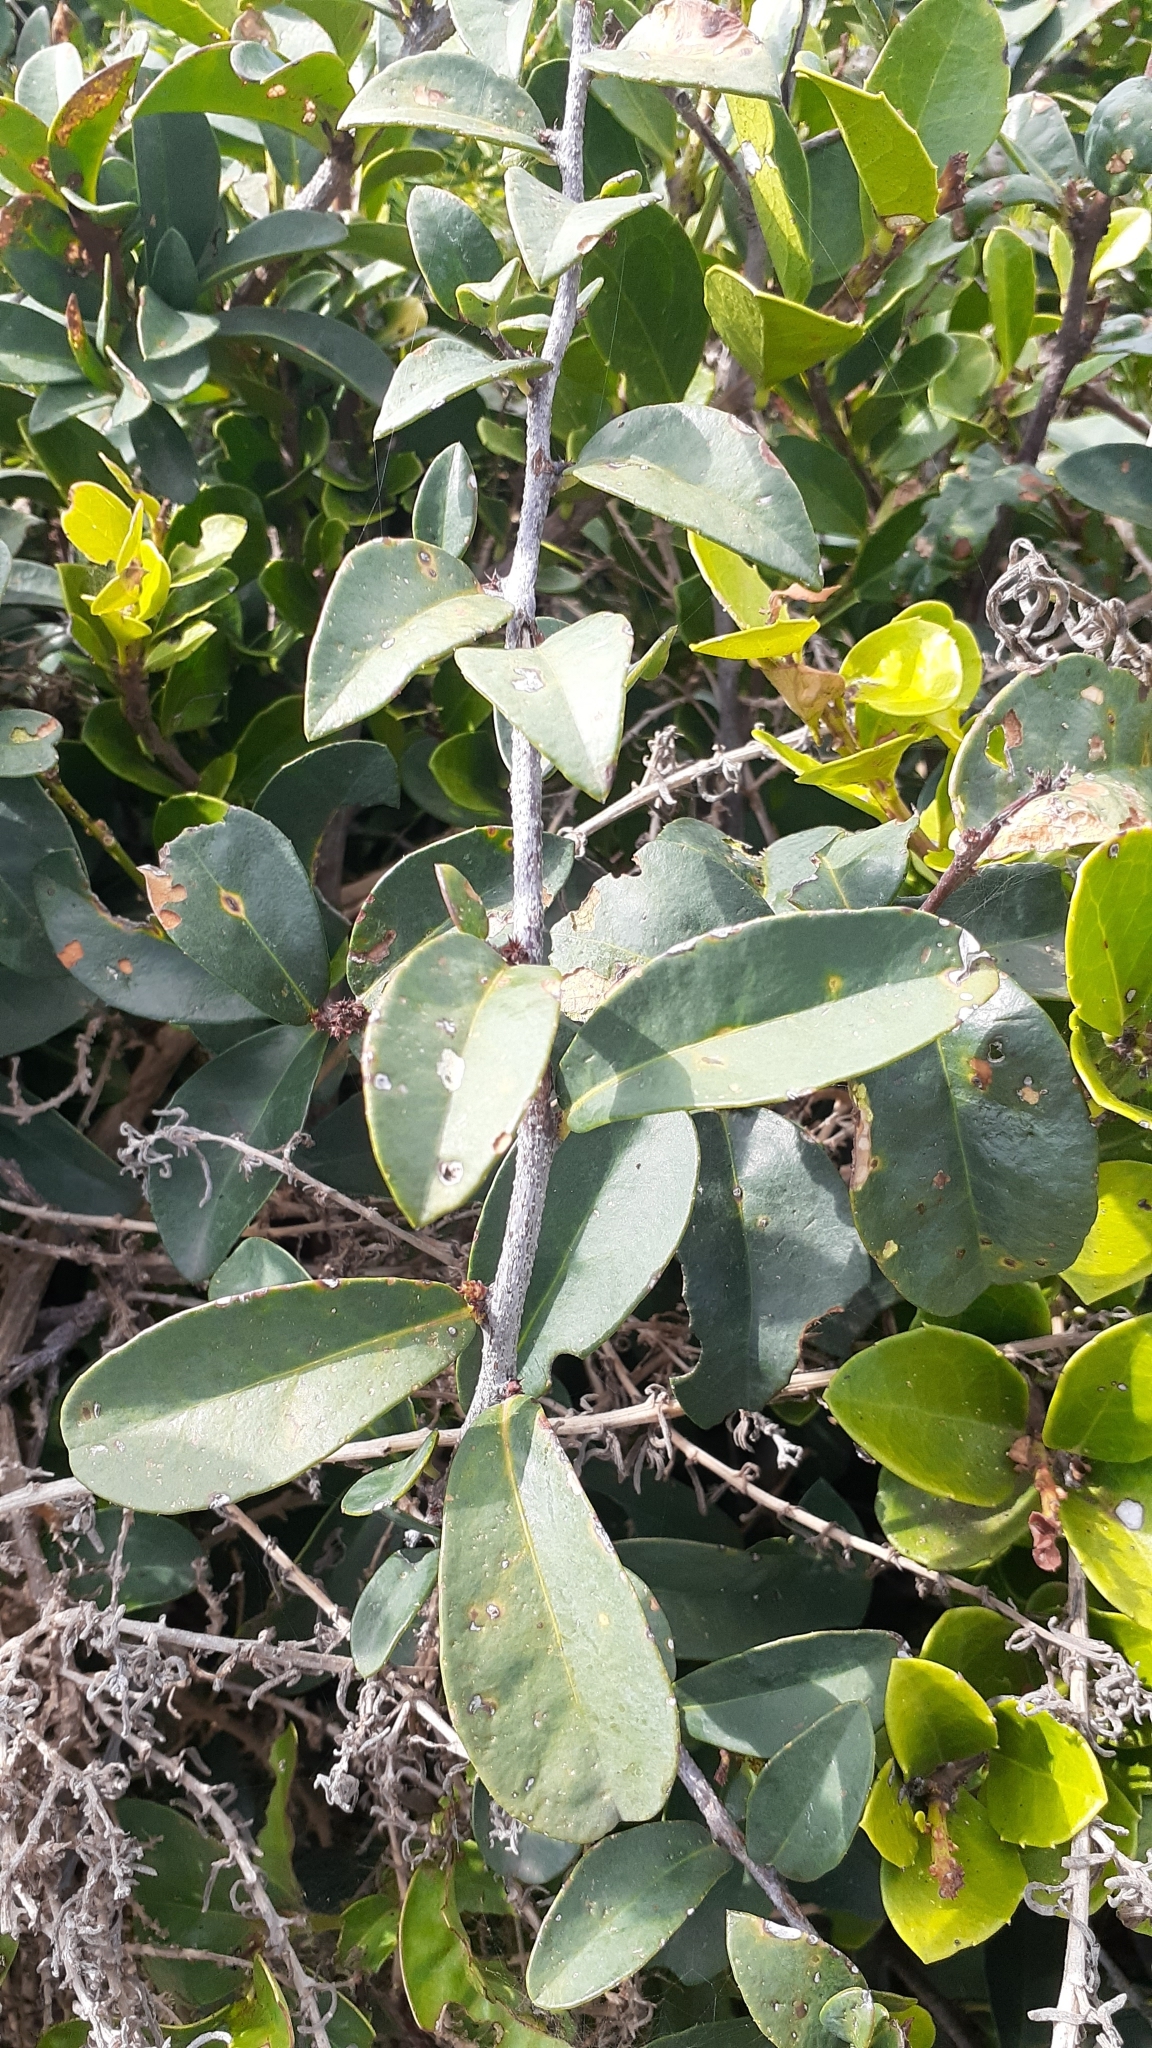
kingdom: Plantae
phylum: Tracheophyta
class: Magnoliopsida
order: Celastrales
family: Celastraceae
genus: Putterlickia
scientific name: Putterlickia pyracantha
